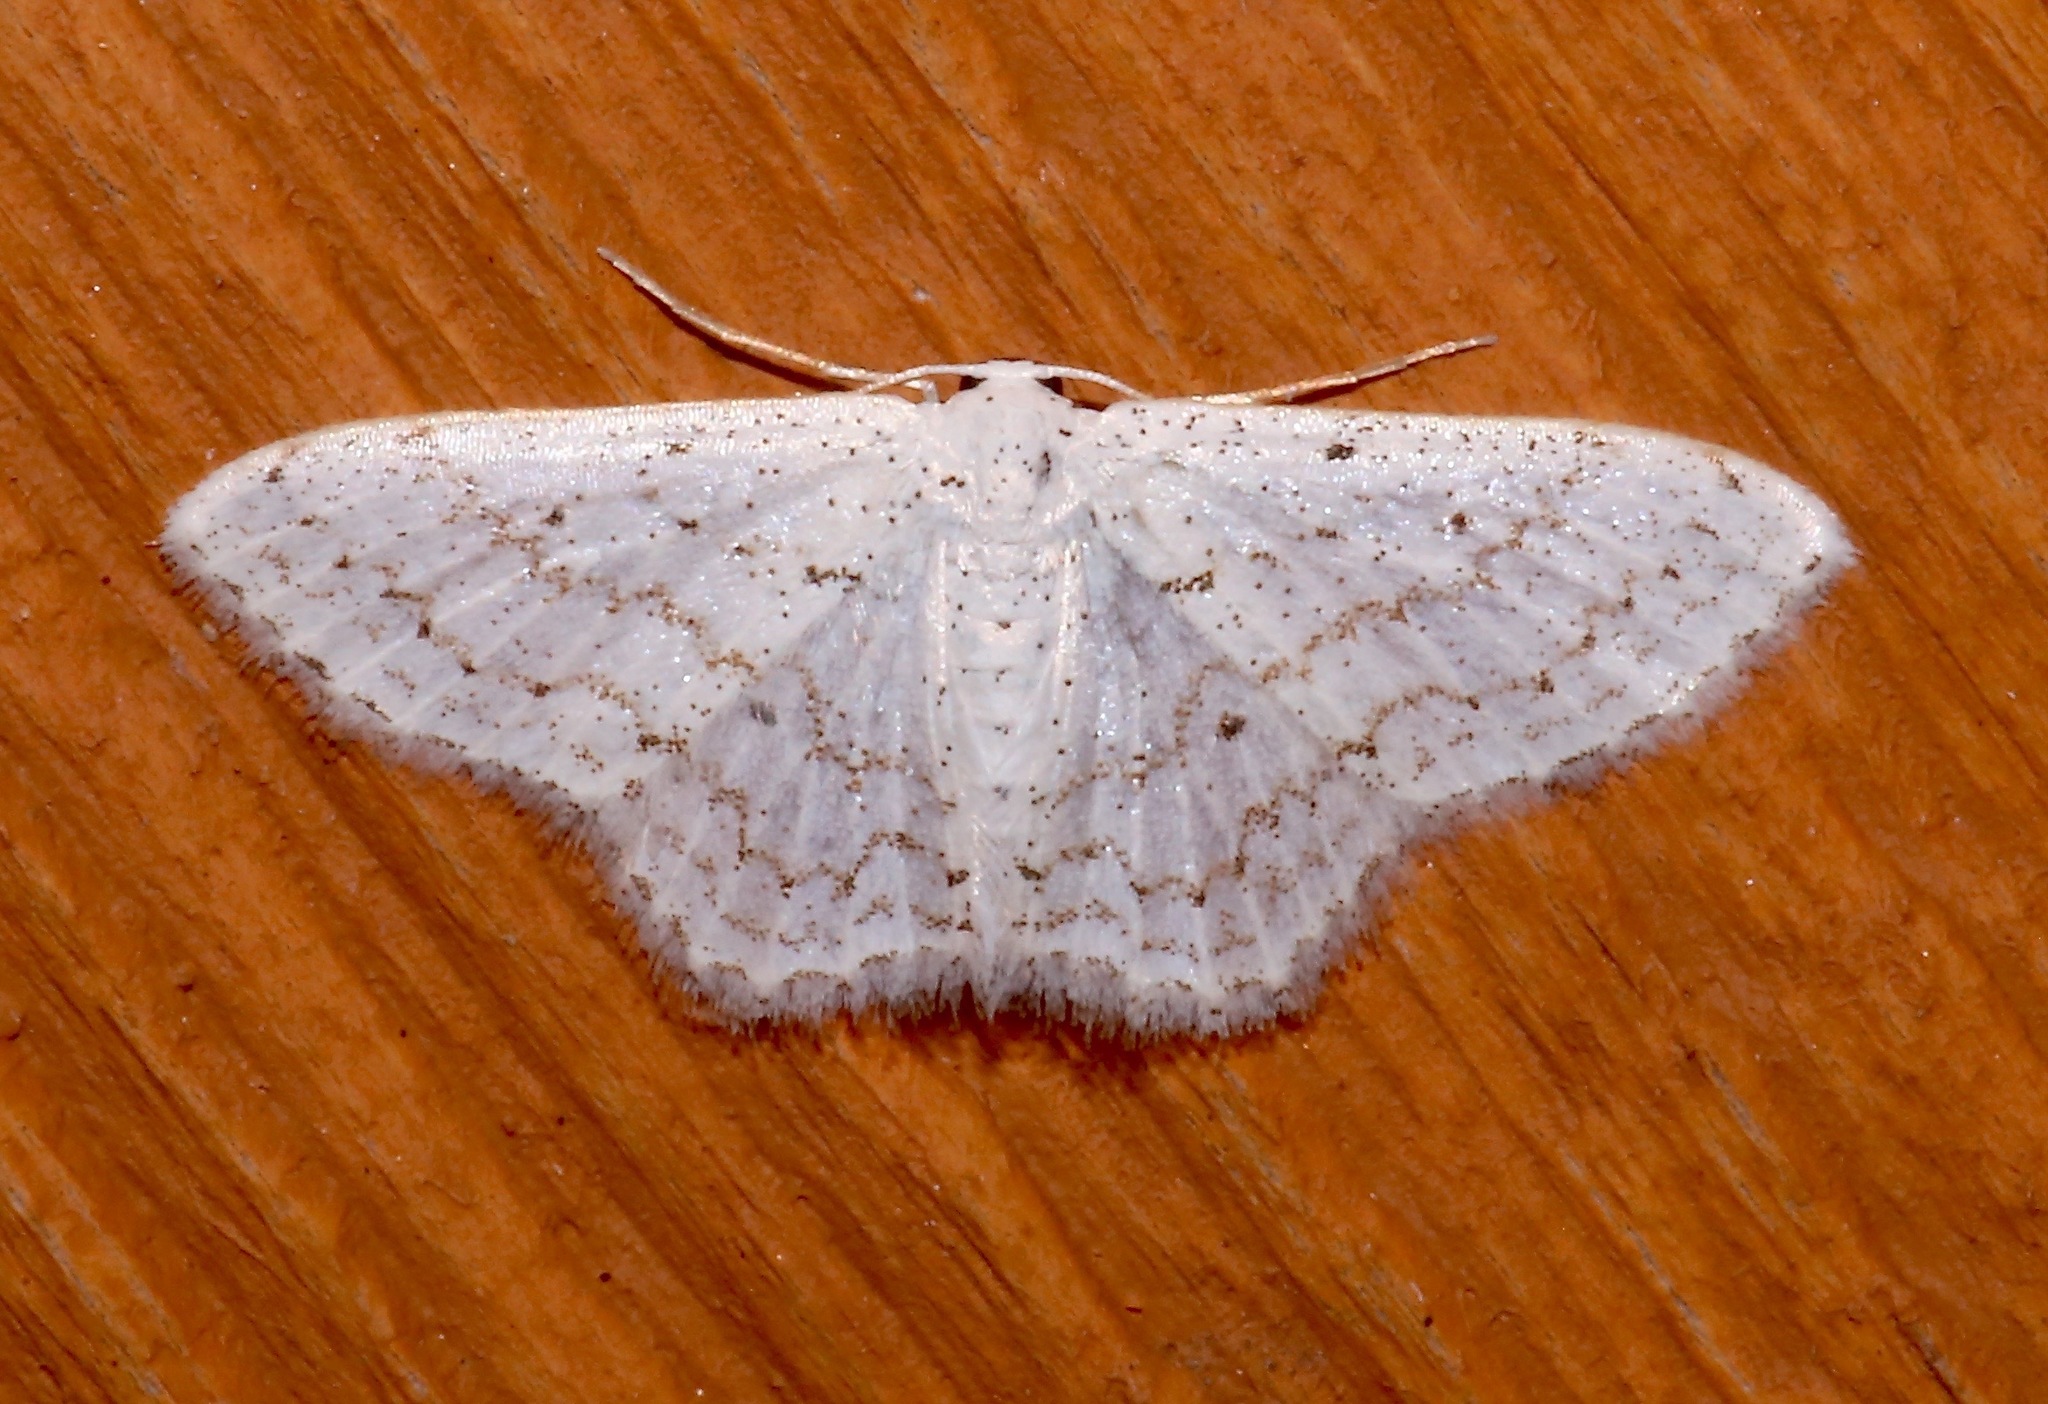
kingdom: Animalia
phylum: Arthropoda
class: Insecta
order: Lepidoptera
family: Geometridae
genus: Idaea
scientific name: Idaea tacturata
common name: Dot-lined wave
